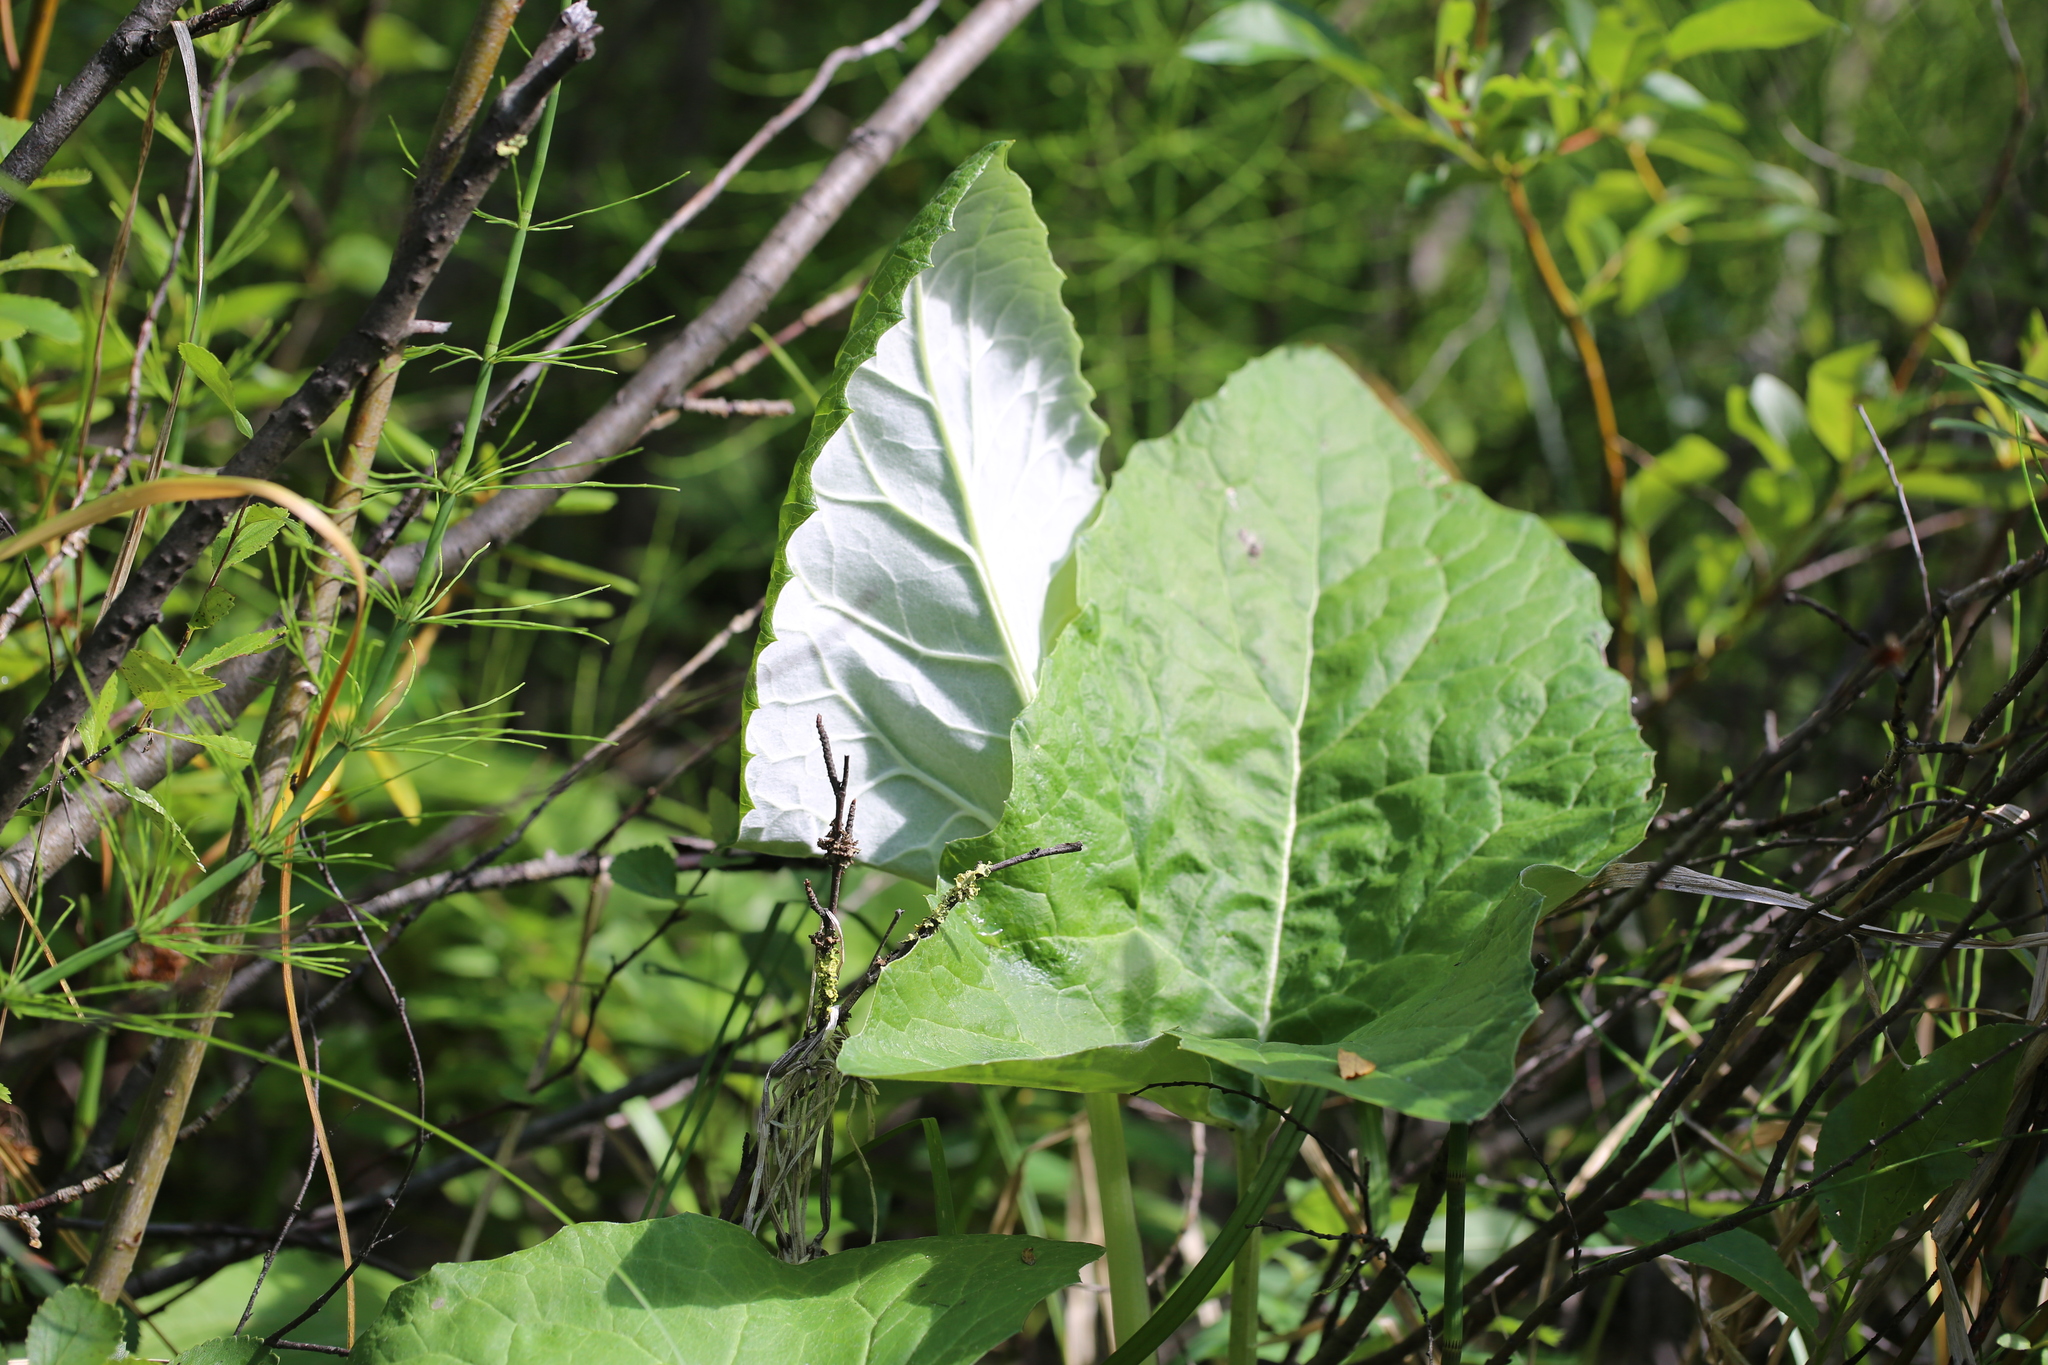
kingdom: Plantae
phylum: Tracheophyta
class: Magnoliopsida
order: Asterales
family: Asteraceae
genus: Petasites
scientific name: Petasites frigidus
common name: Arctic butterbur
